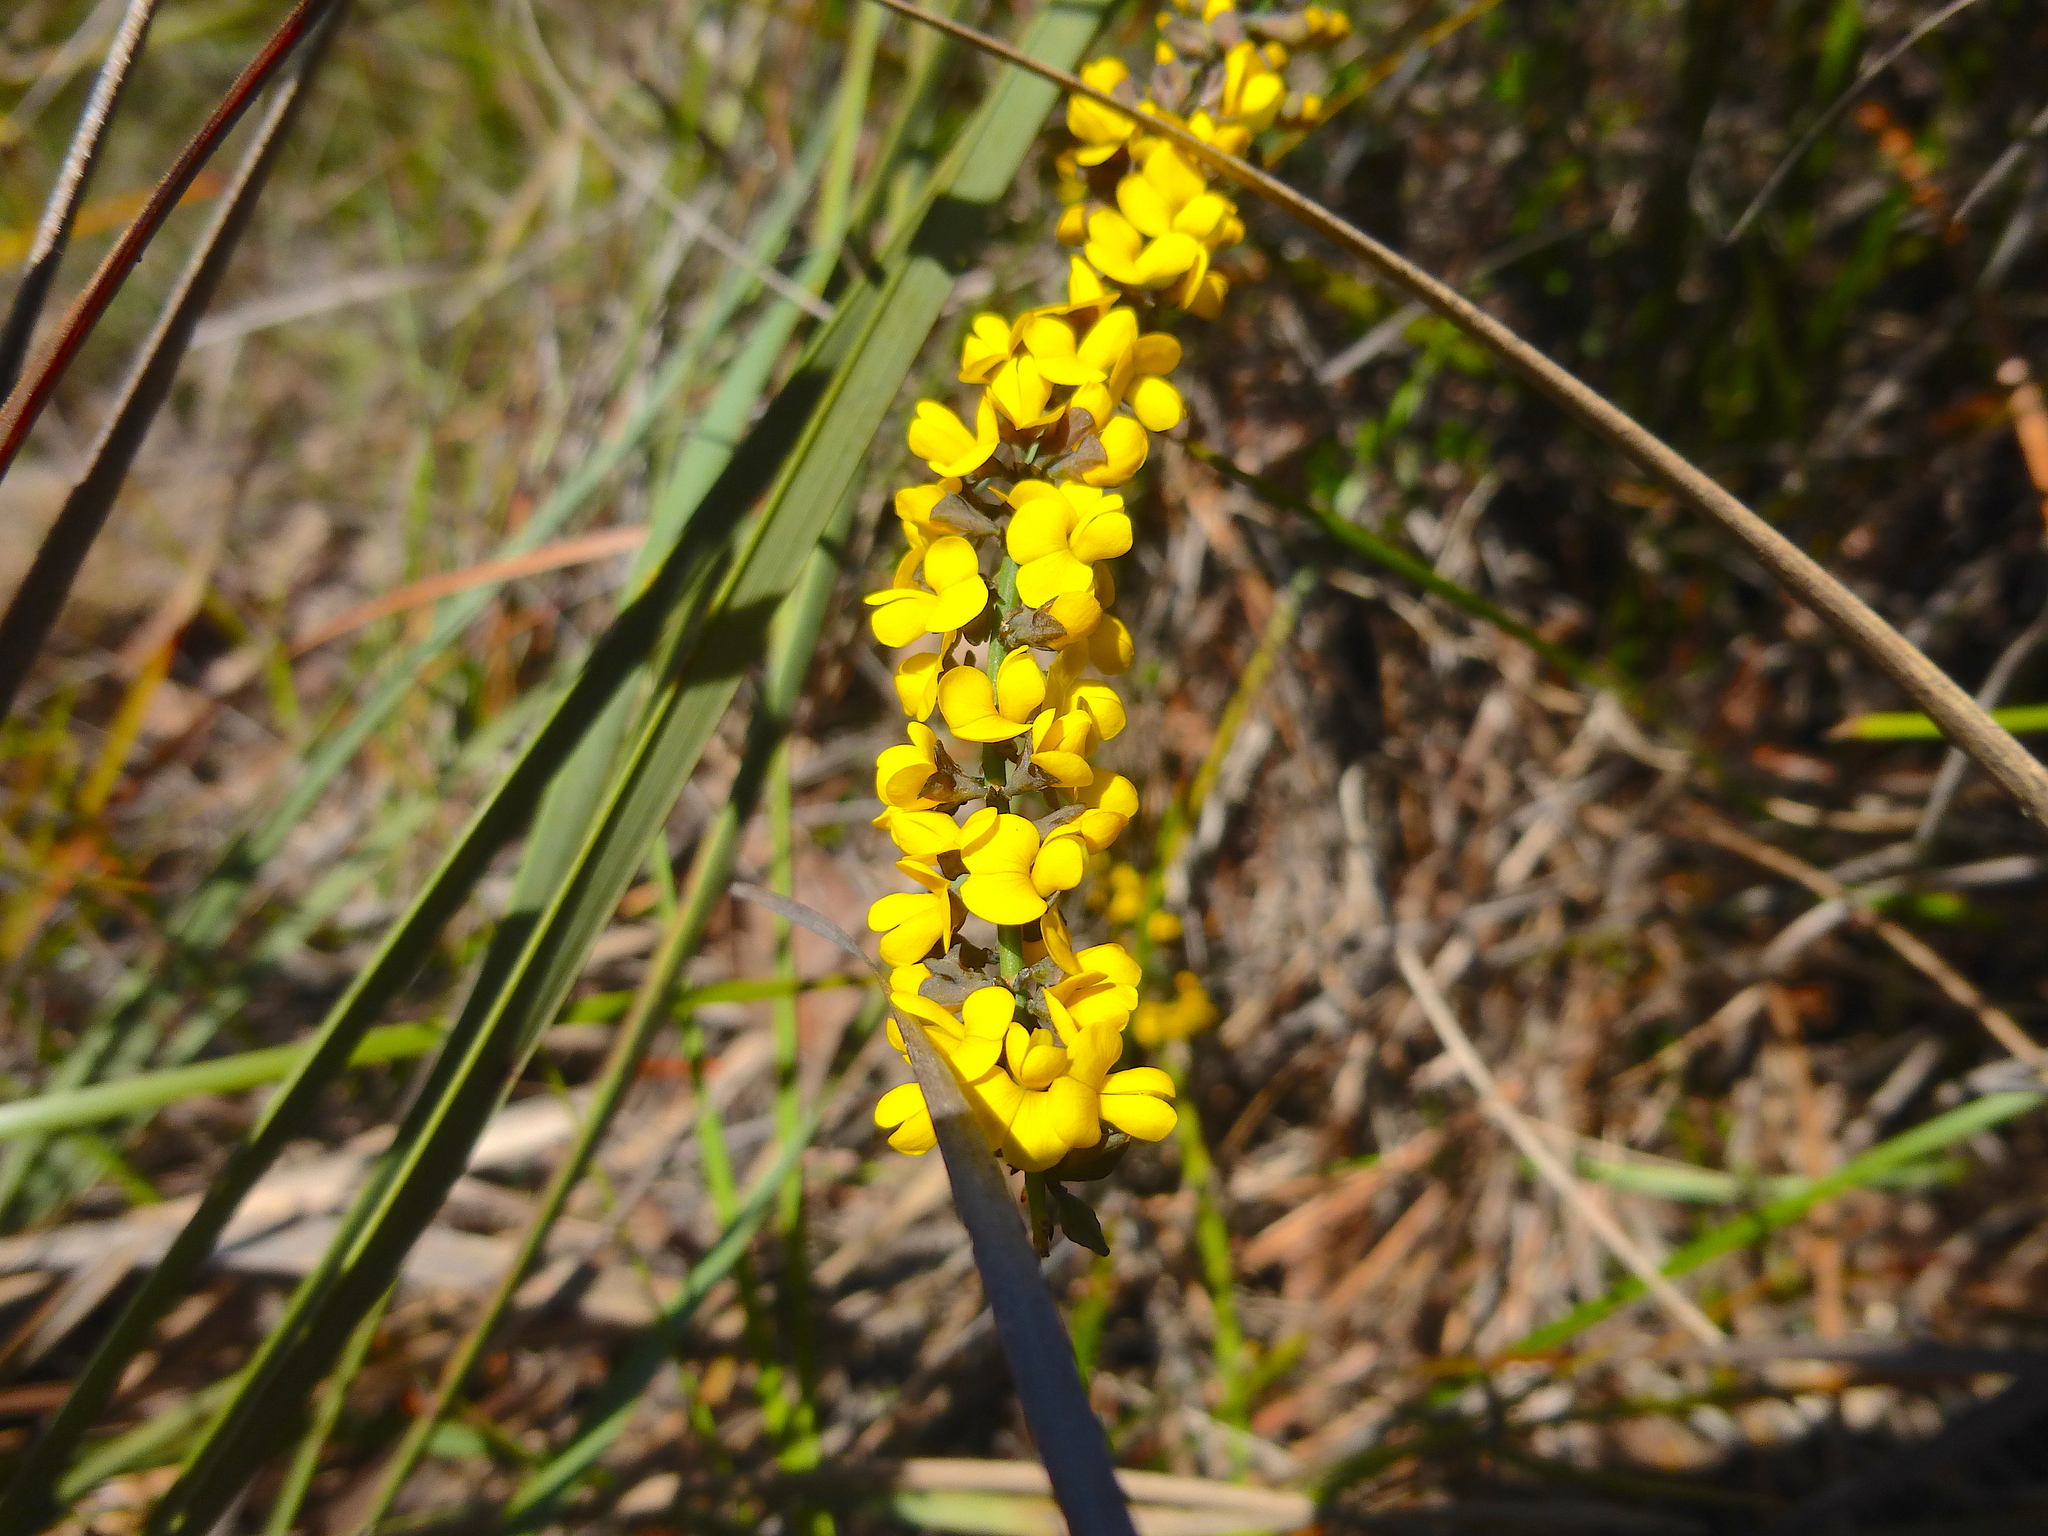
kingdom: Plantae
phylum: Tracheophyta
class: Magnoliopsida
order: Fabales
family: Fabaceae
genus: Sphaerolobium
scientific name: Sphaerolobium minus
